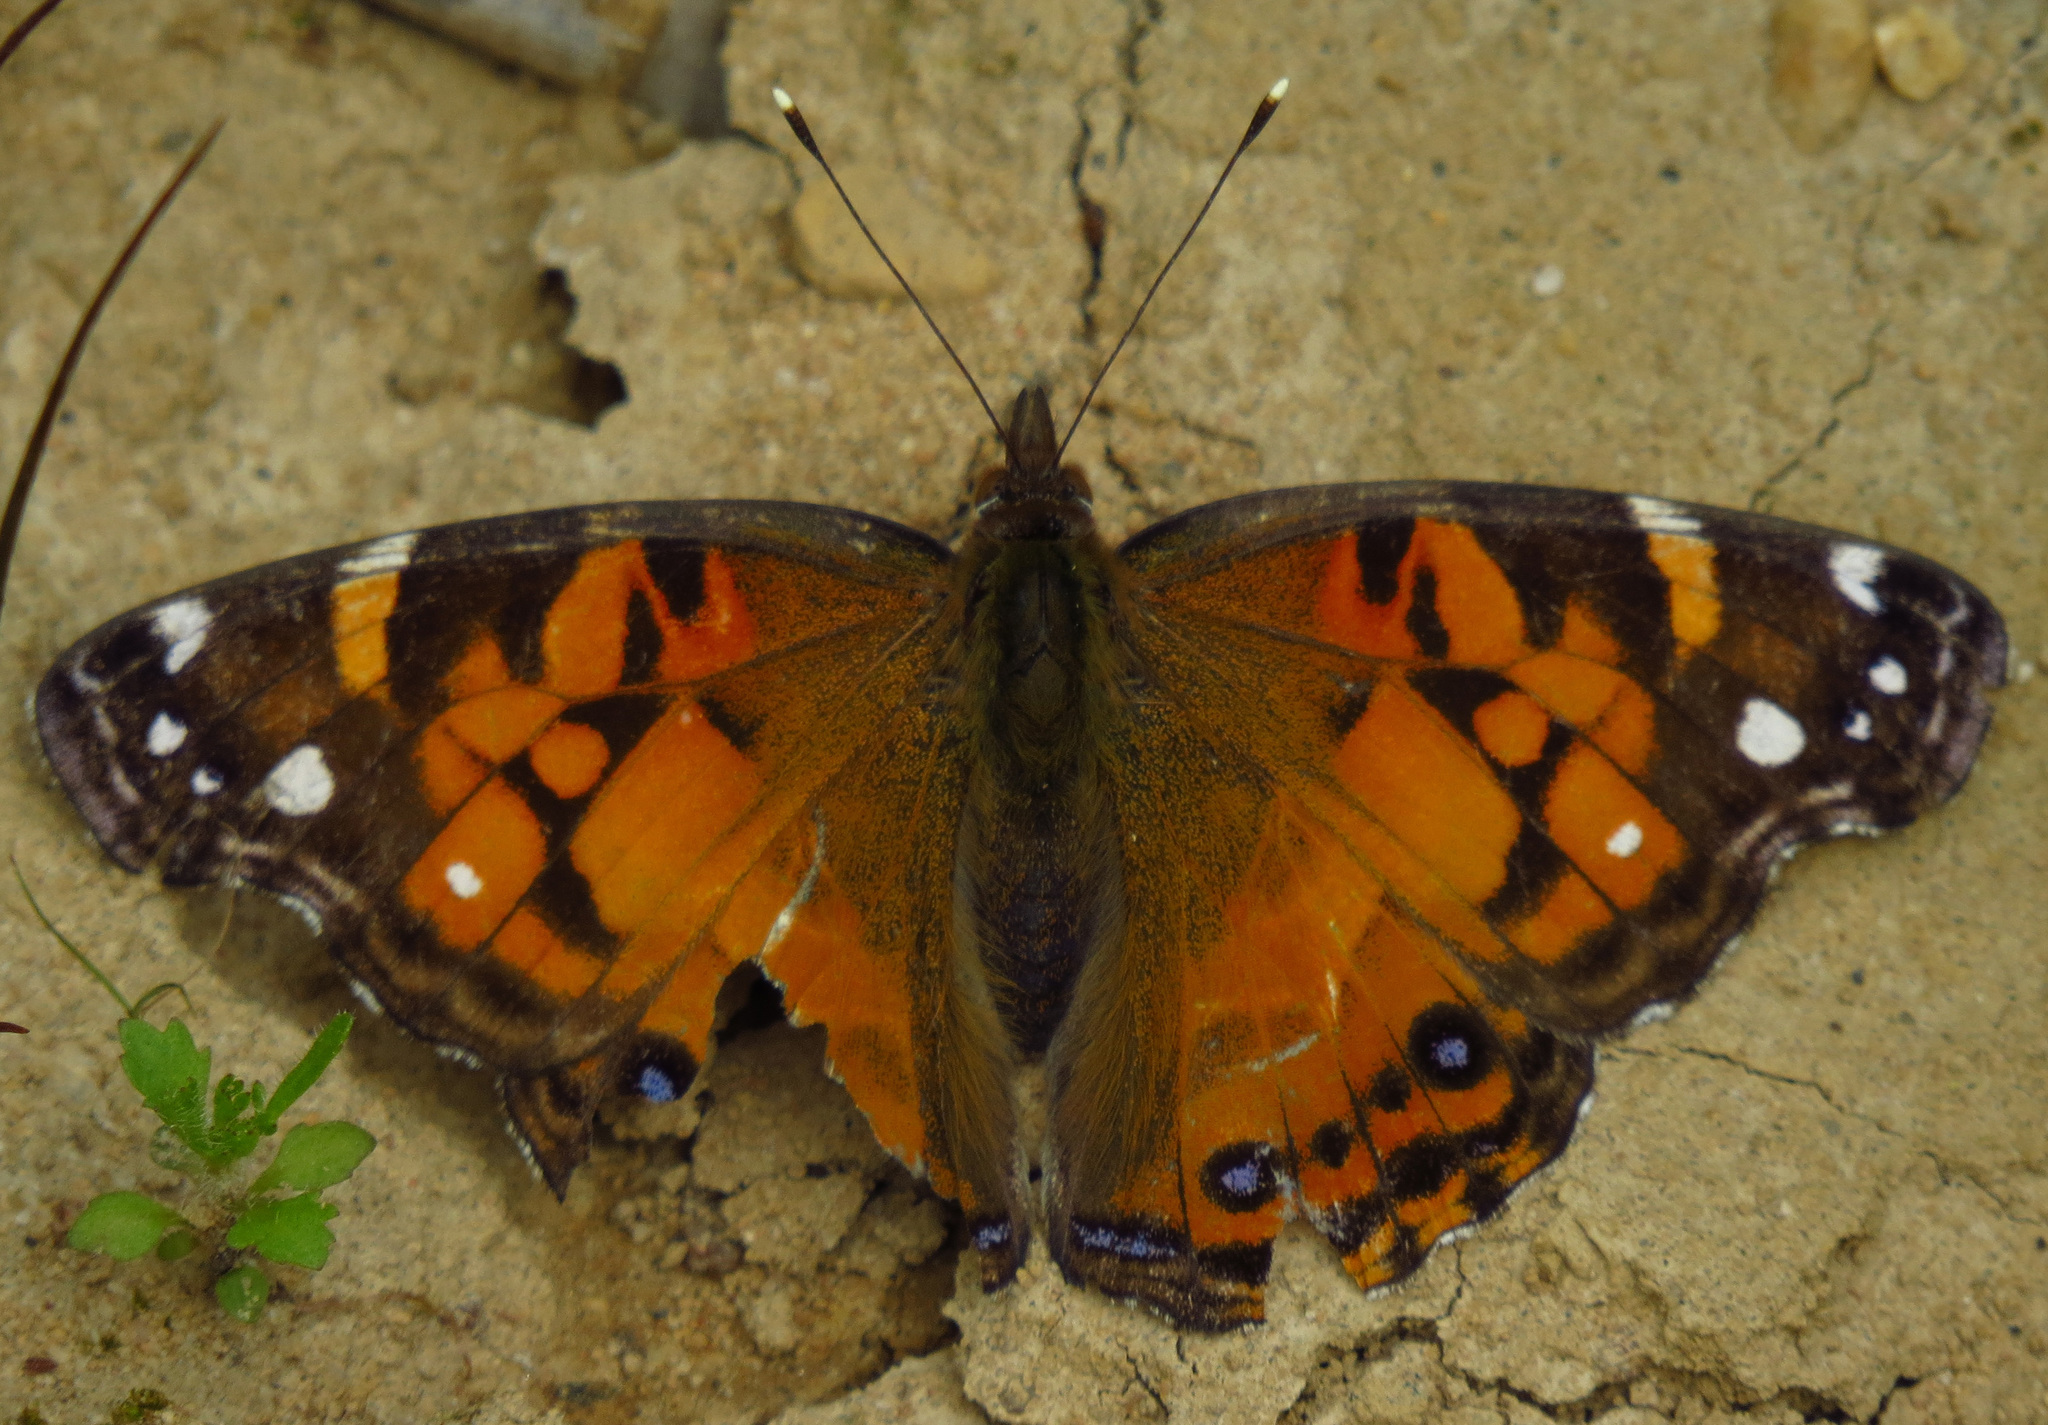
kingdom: Animalia
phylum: Arthropoda
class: Insecta
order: Lepidoptera
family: Nymphalidae
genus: Vanessa
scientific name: Vanessa virginiensis
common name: American lady
